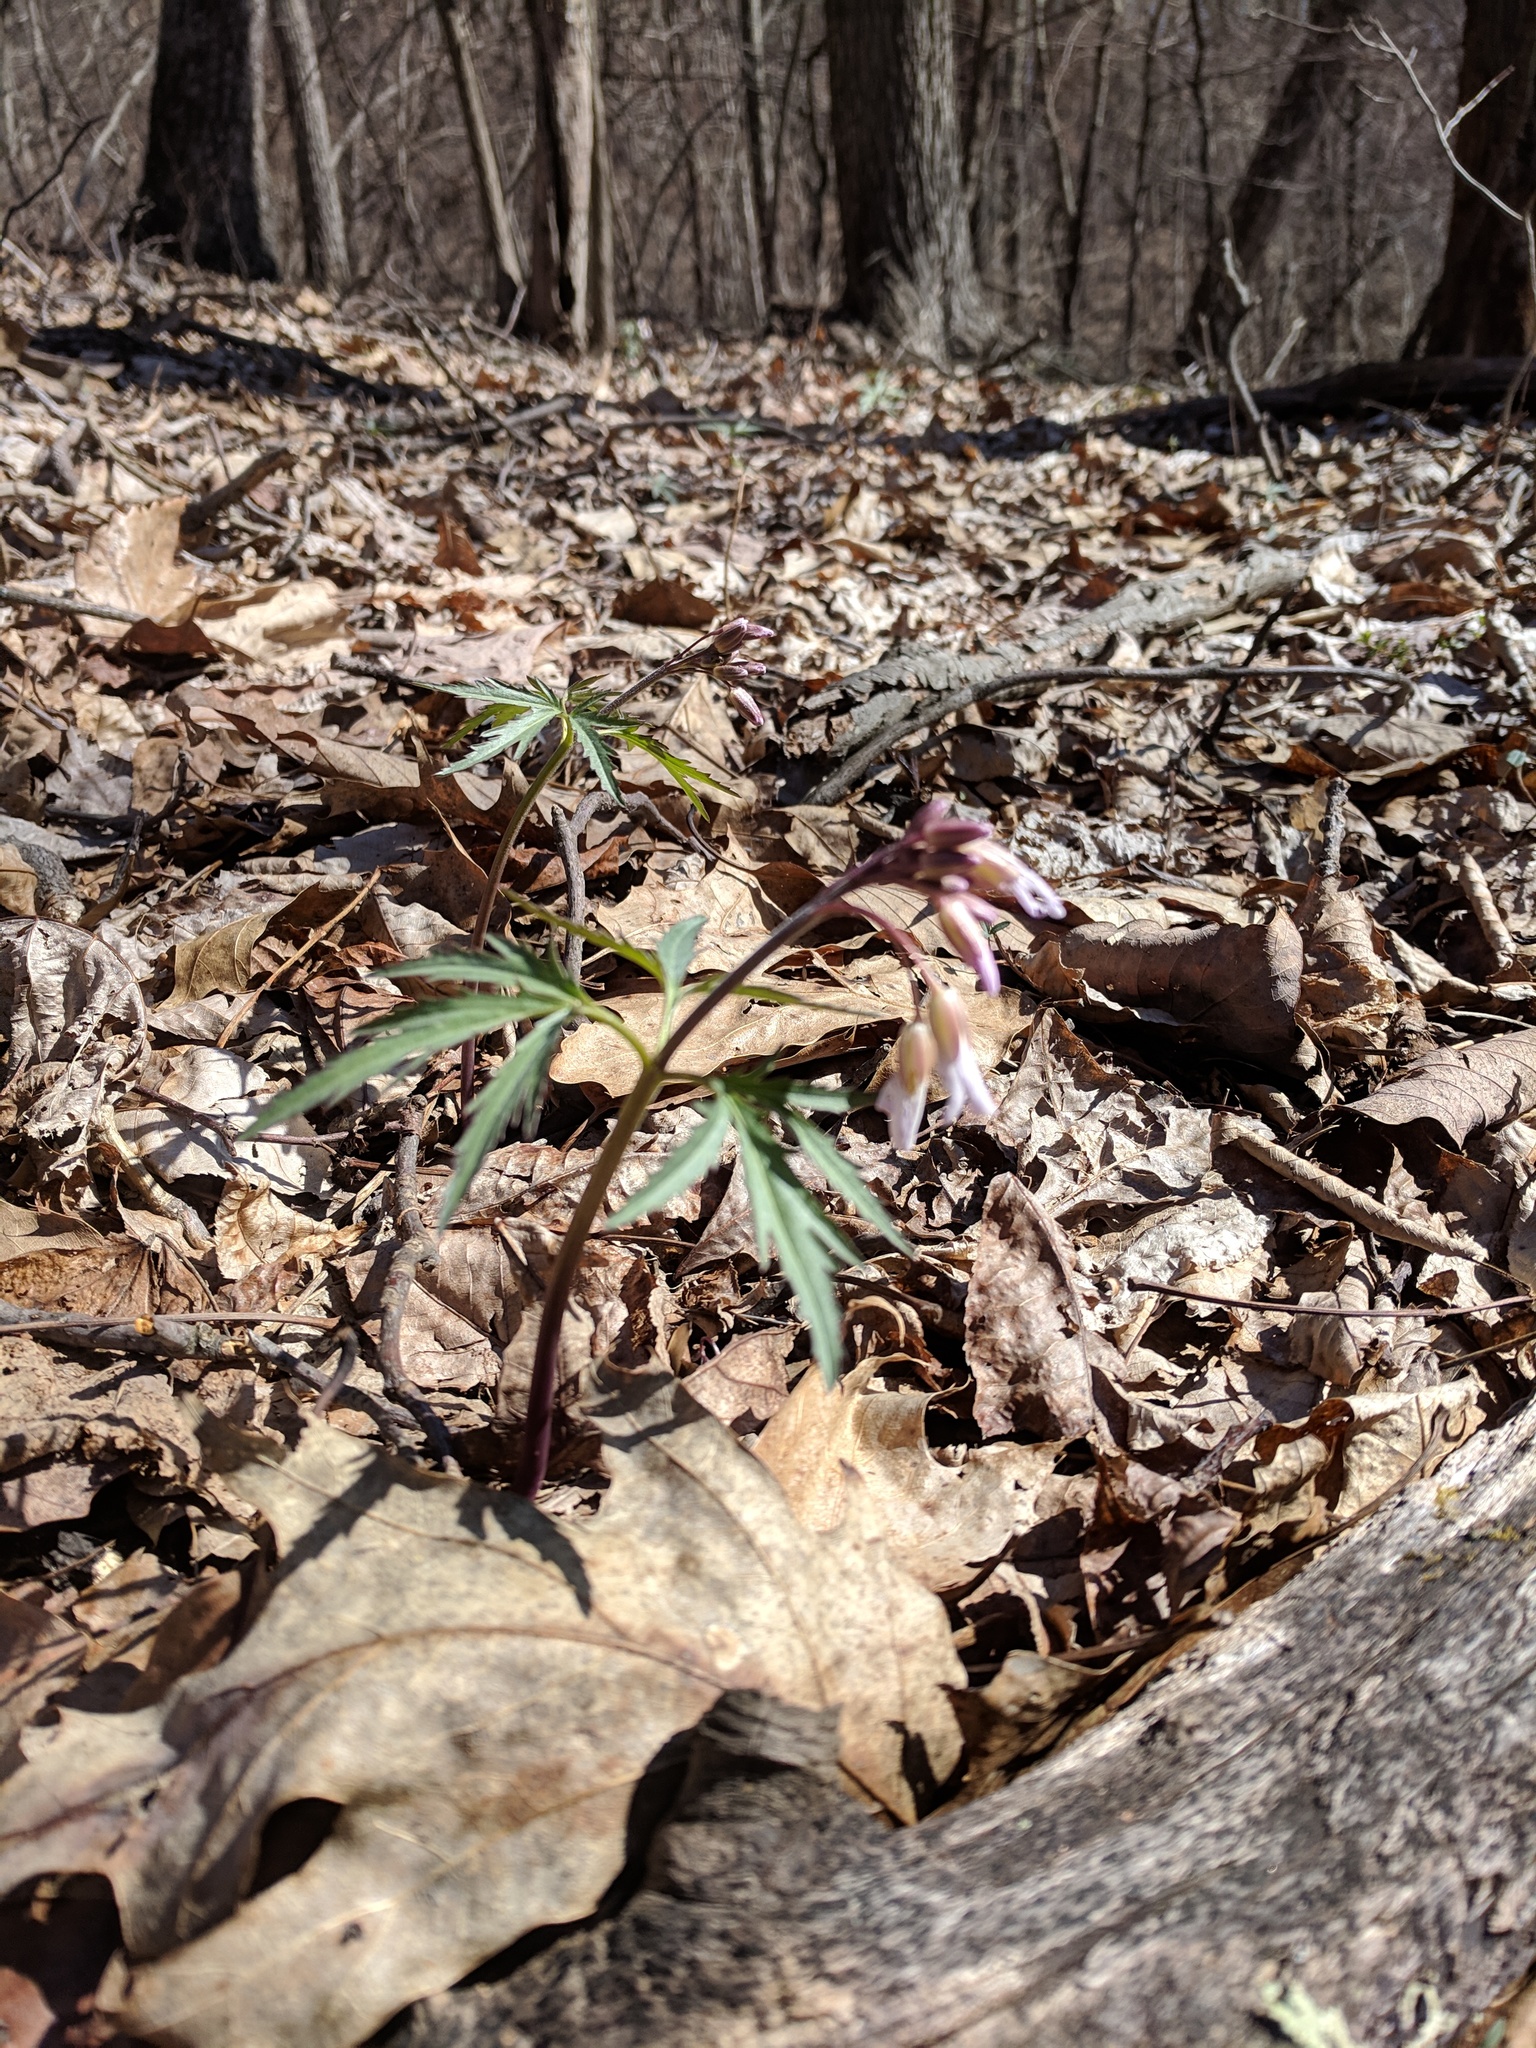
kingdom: Plantae
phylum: Tracheophyta
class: Magnoliopsida
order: Brassicales
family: Brassicaceae
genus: Cardamine
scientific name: Cardamine concatenata
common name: Cut-leaf toothcup
